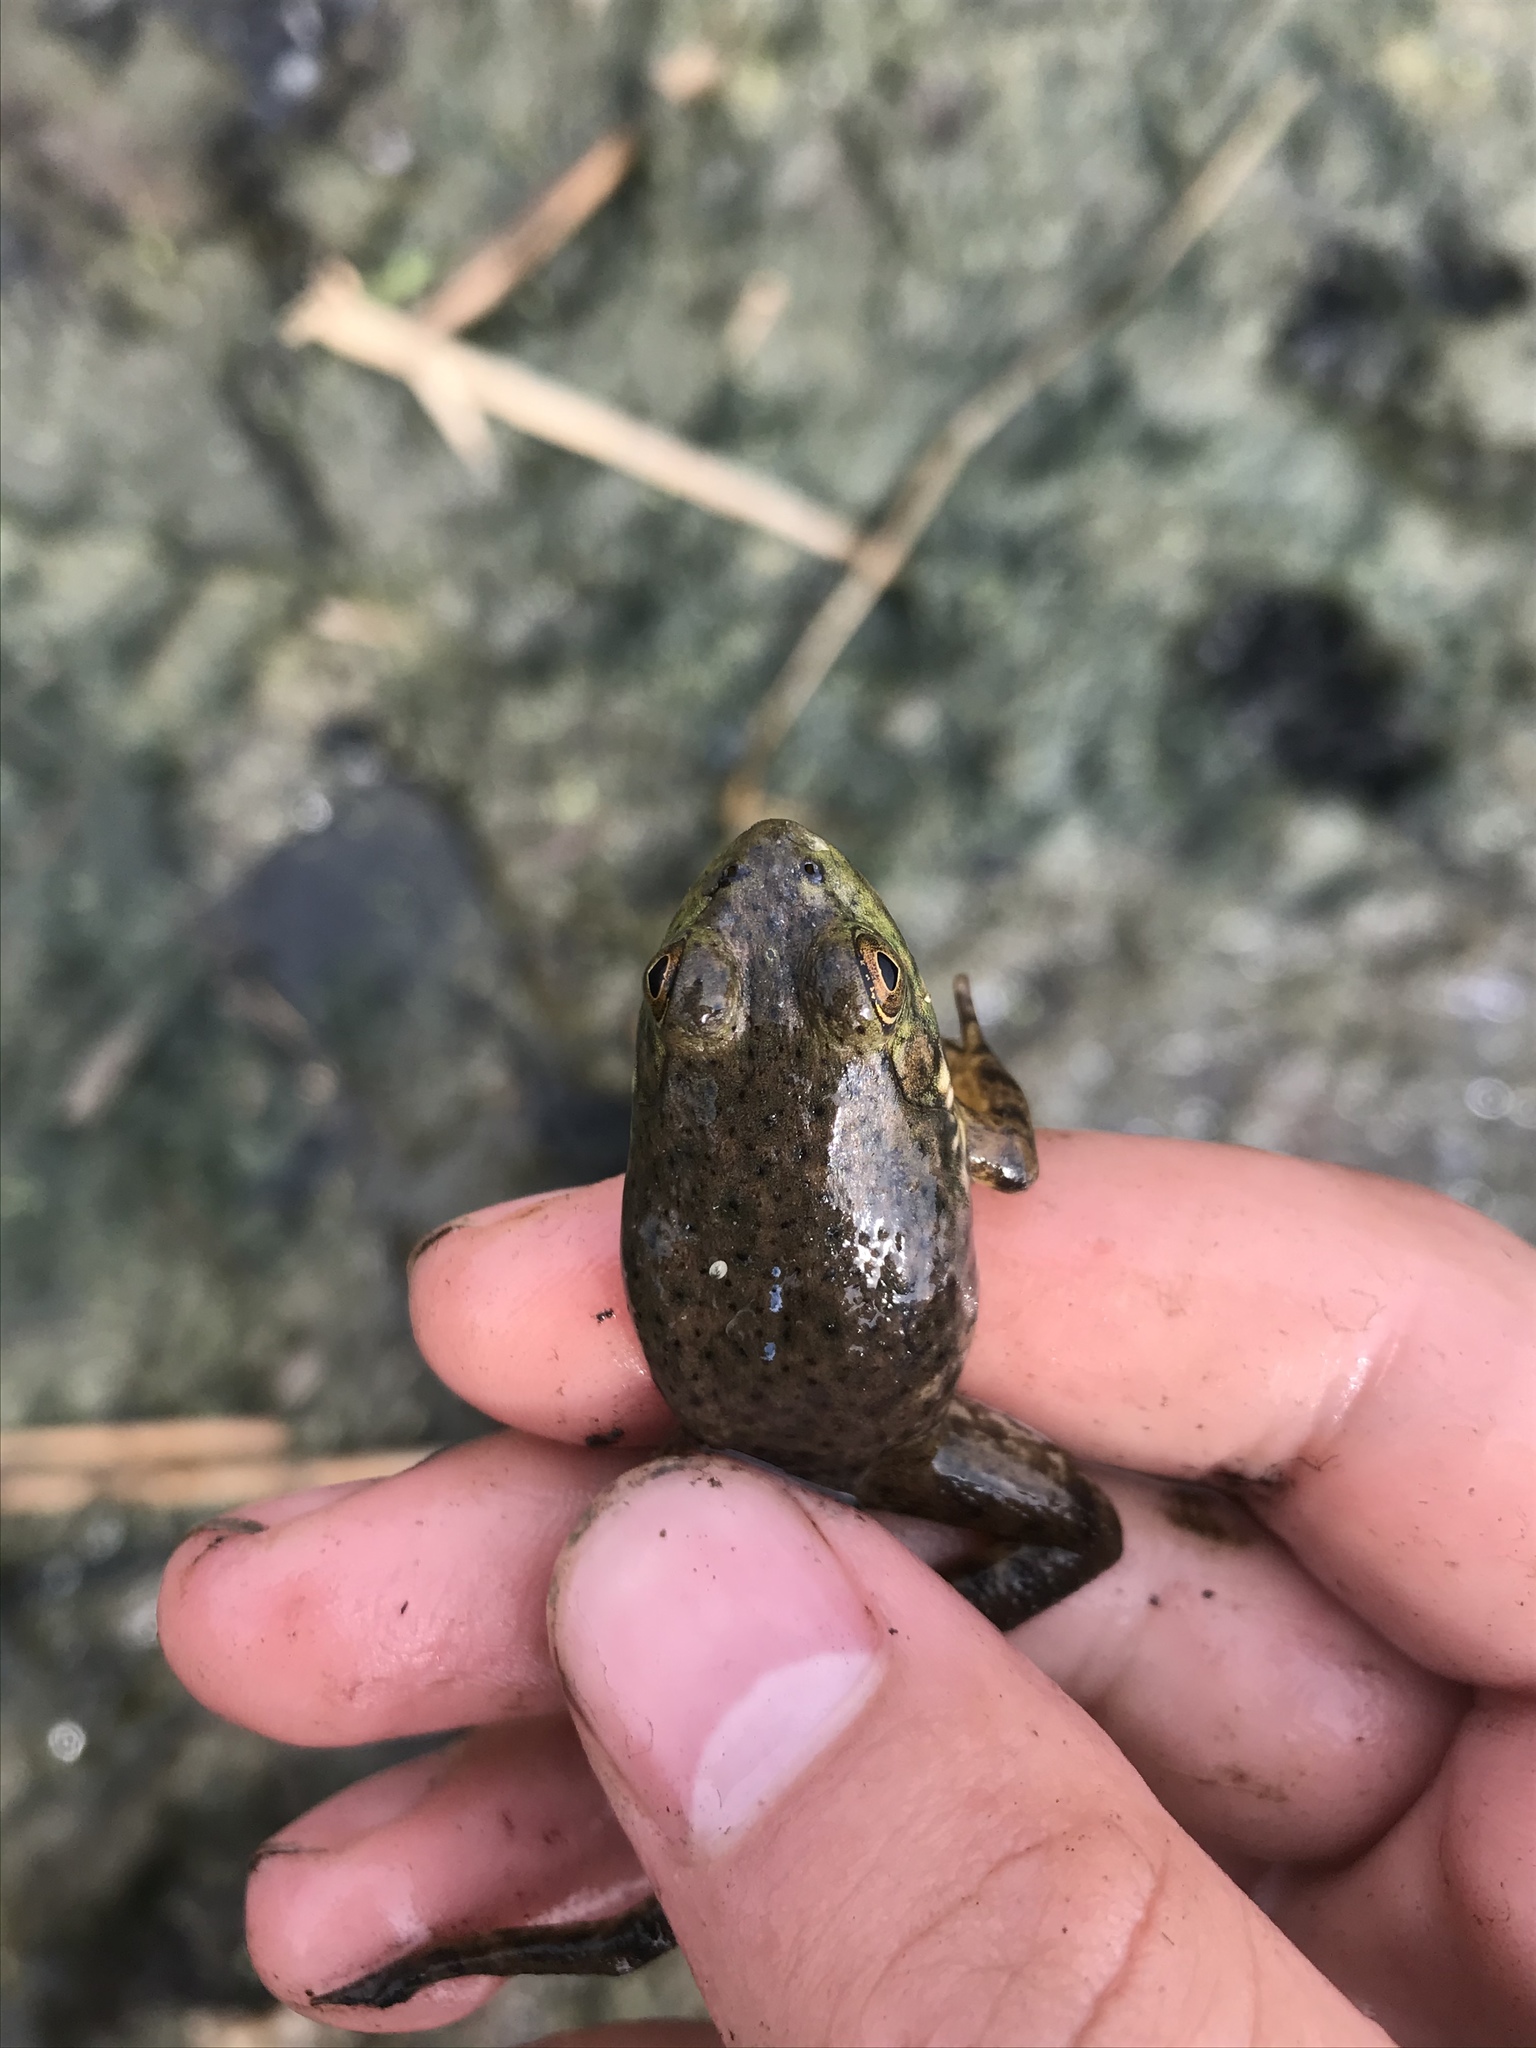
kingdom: Animalia
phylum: Chordata
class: Amphibia
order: Anura
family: Ranidae
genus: Lithobates
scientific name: Lithobates catesbeianus
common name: American bullfrog
